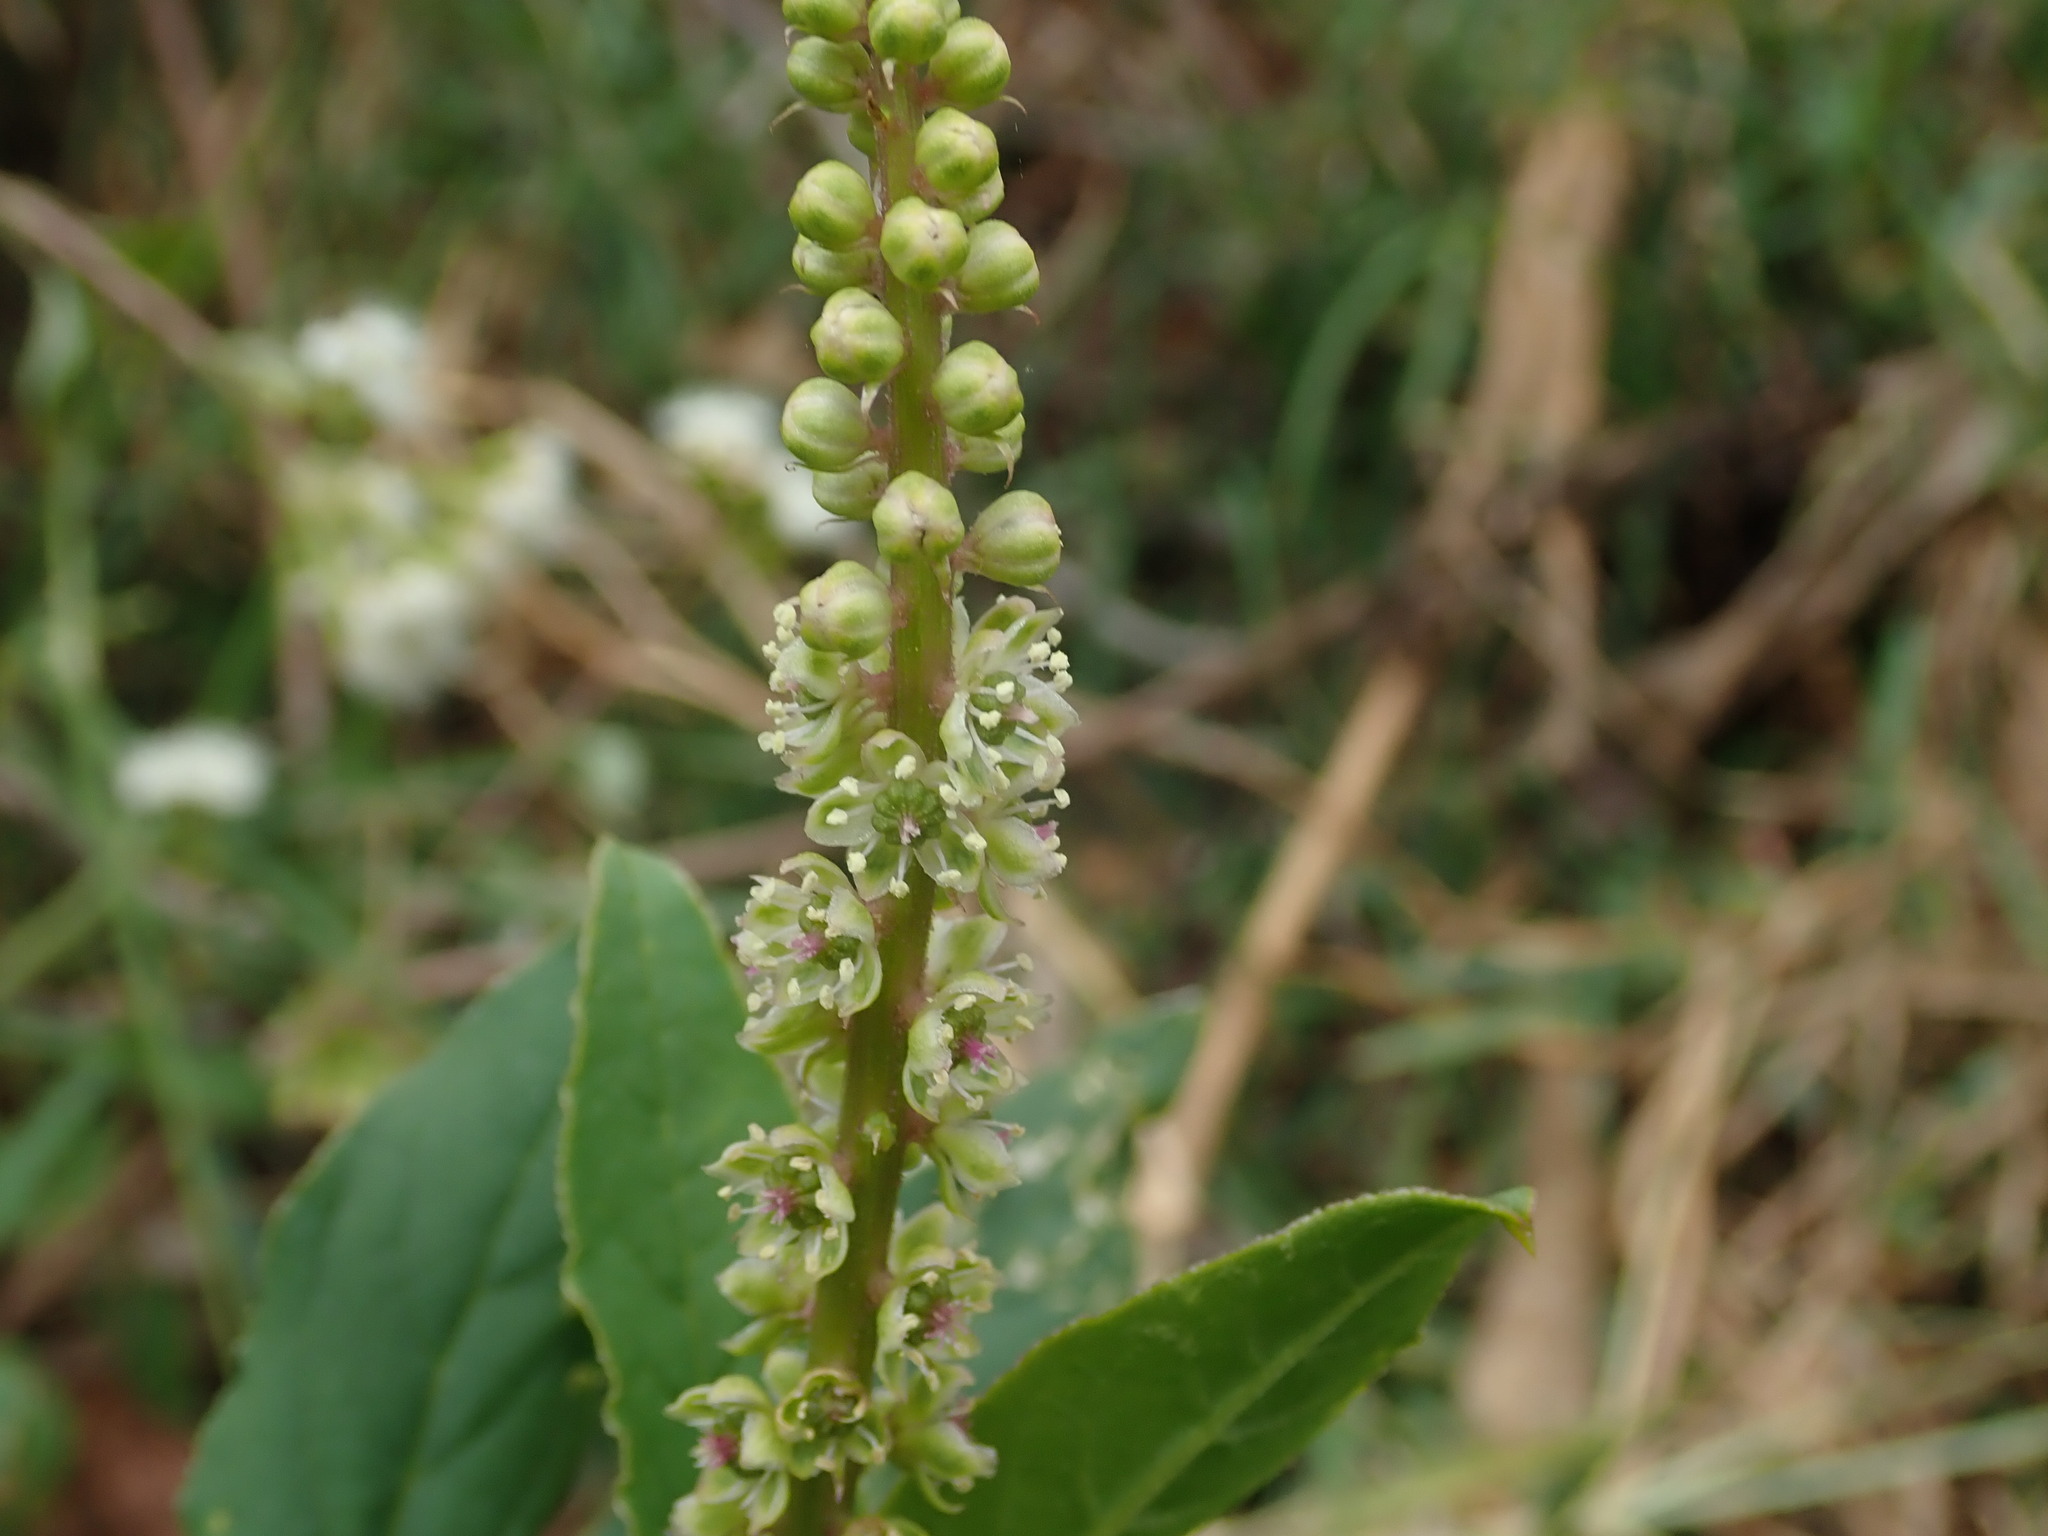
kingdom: Plantae
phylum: Tracheophyta
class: Magnoliopsida
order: Caryophyllales
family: Phytolaccaceae
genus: Phytolacca
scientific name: Phytolacca icosandra
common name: Button pokeweed
